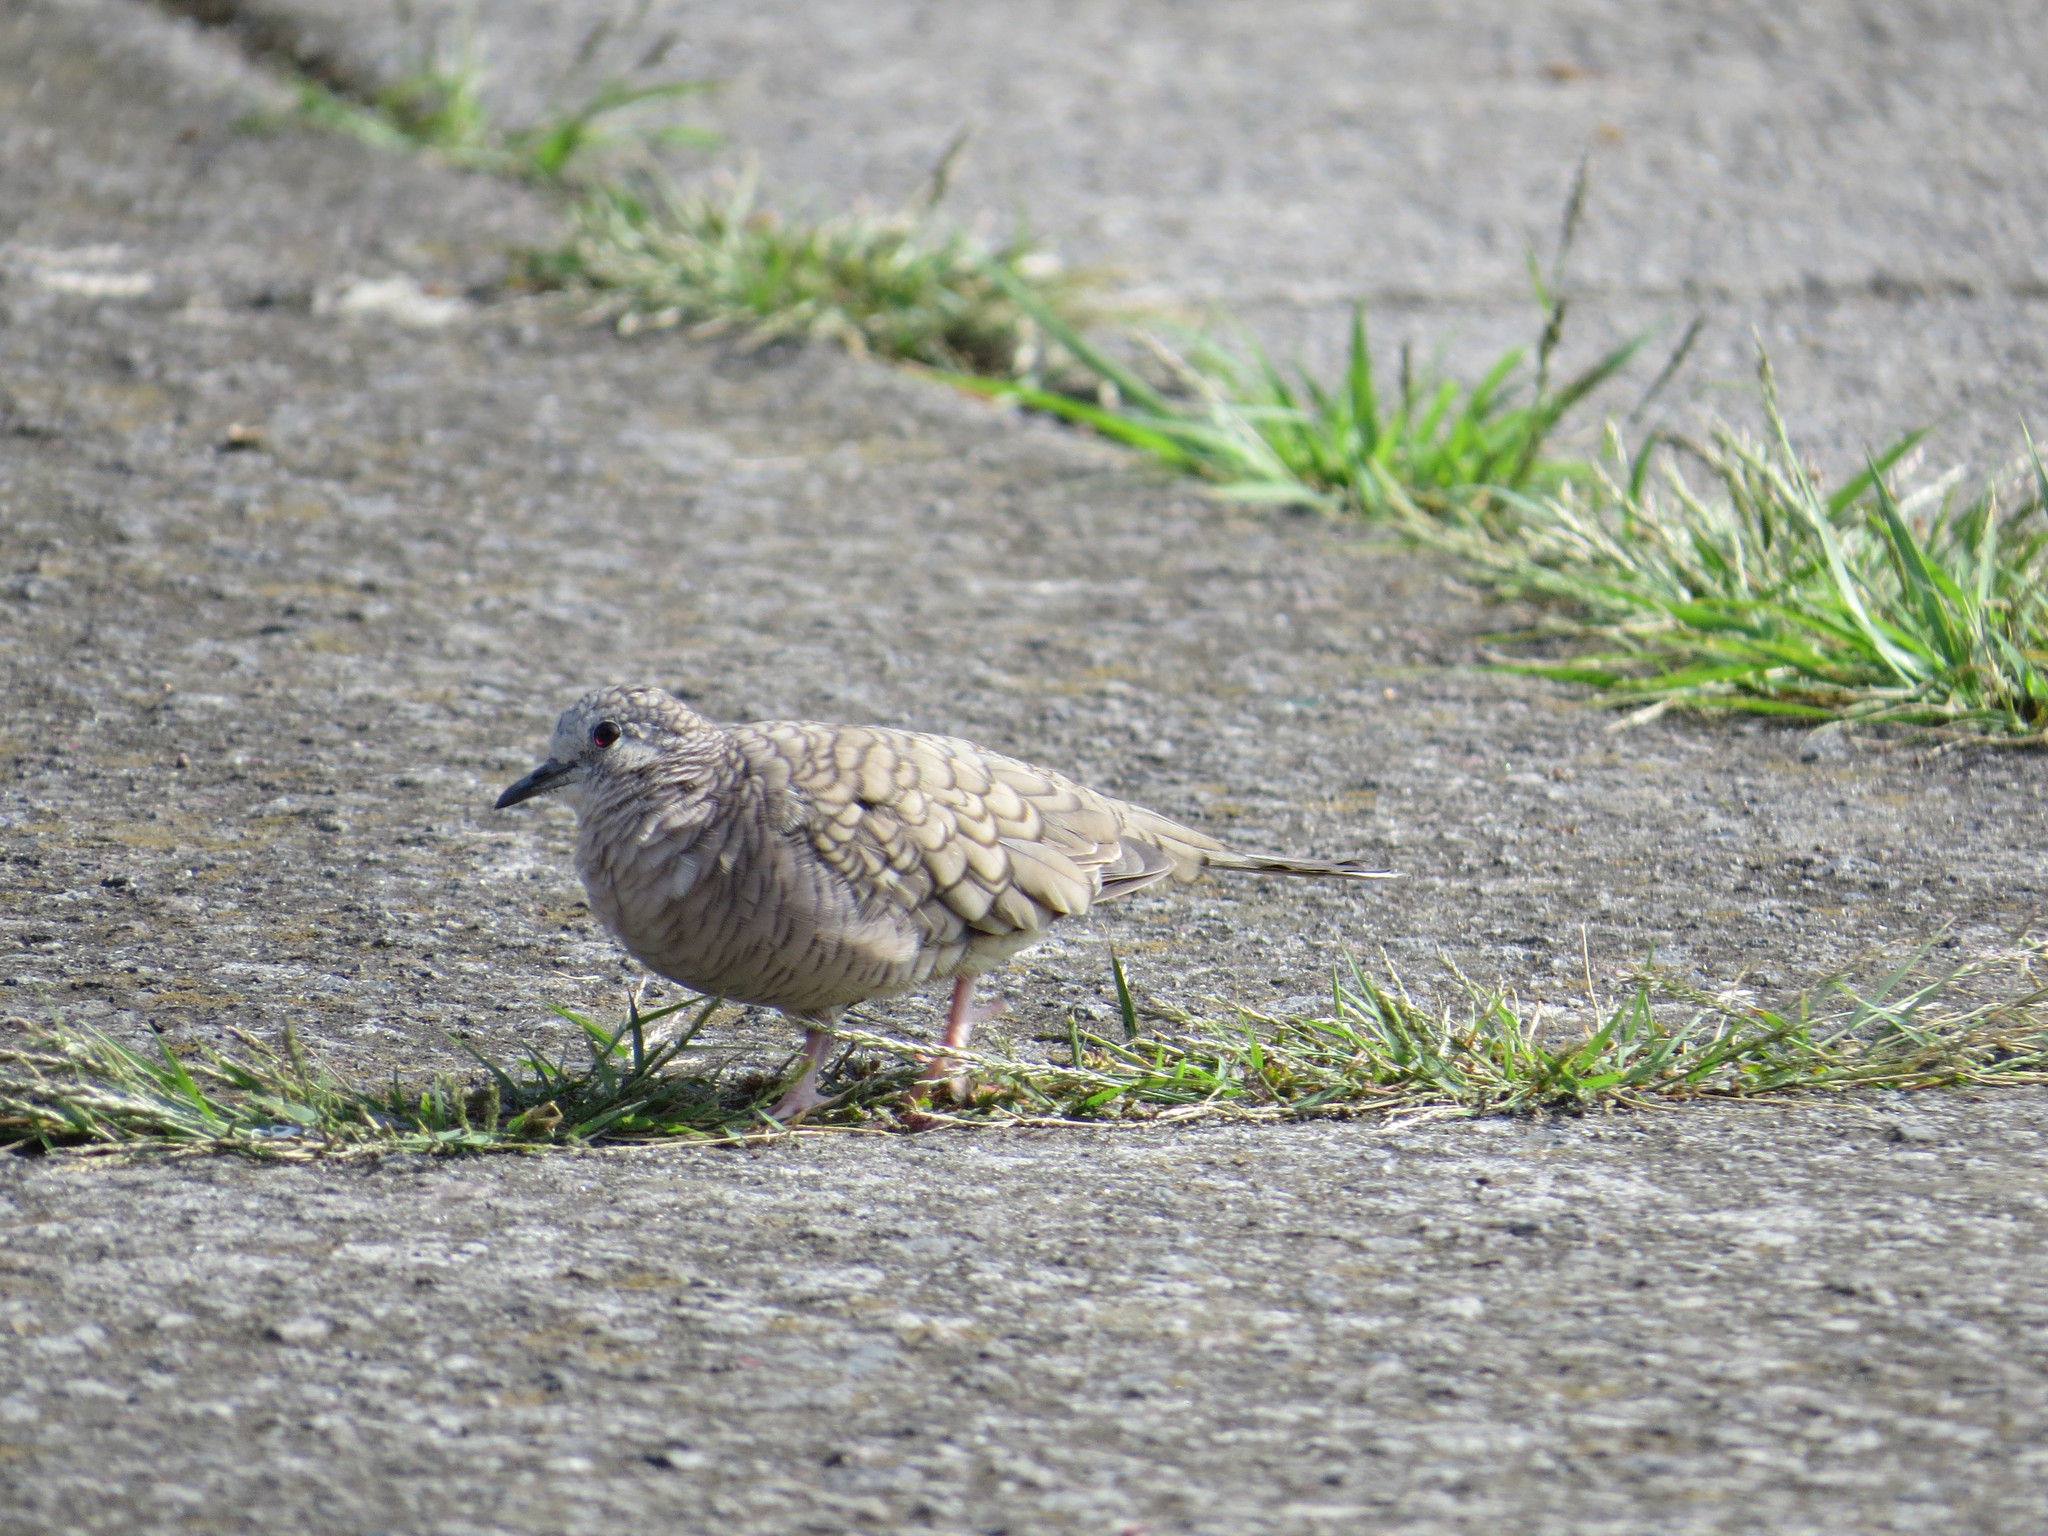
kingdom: Animalia
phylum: Chordata
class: Aves
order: Columbiformes
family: Columbidae
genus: Columbina
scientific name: Columbina inca
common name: Inca dove
